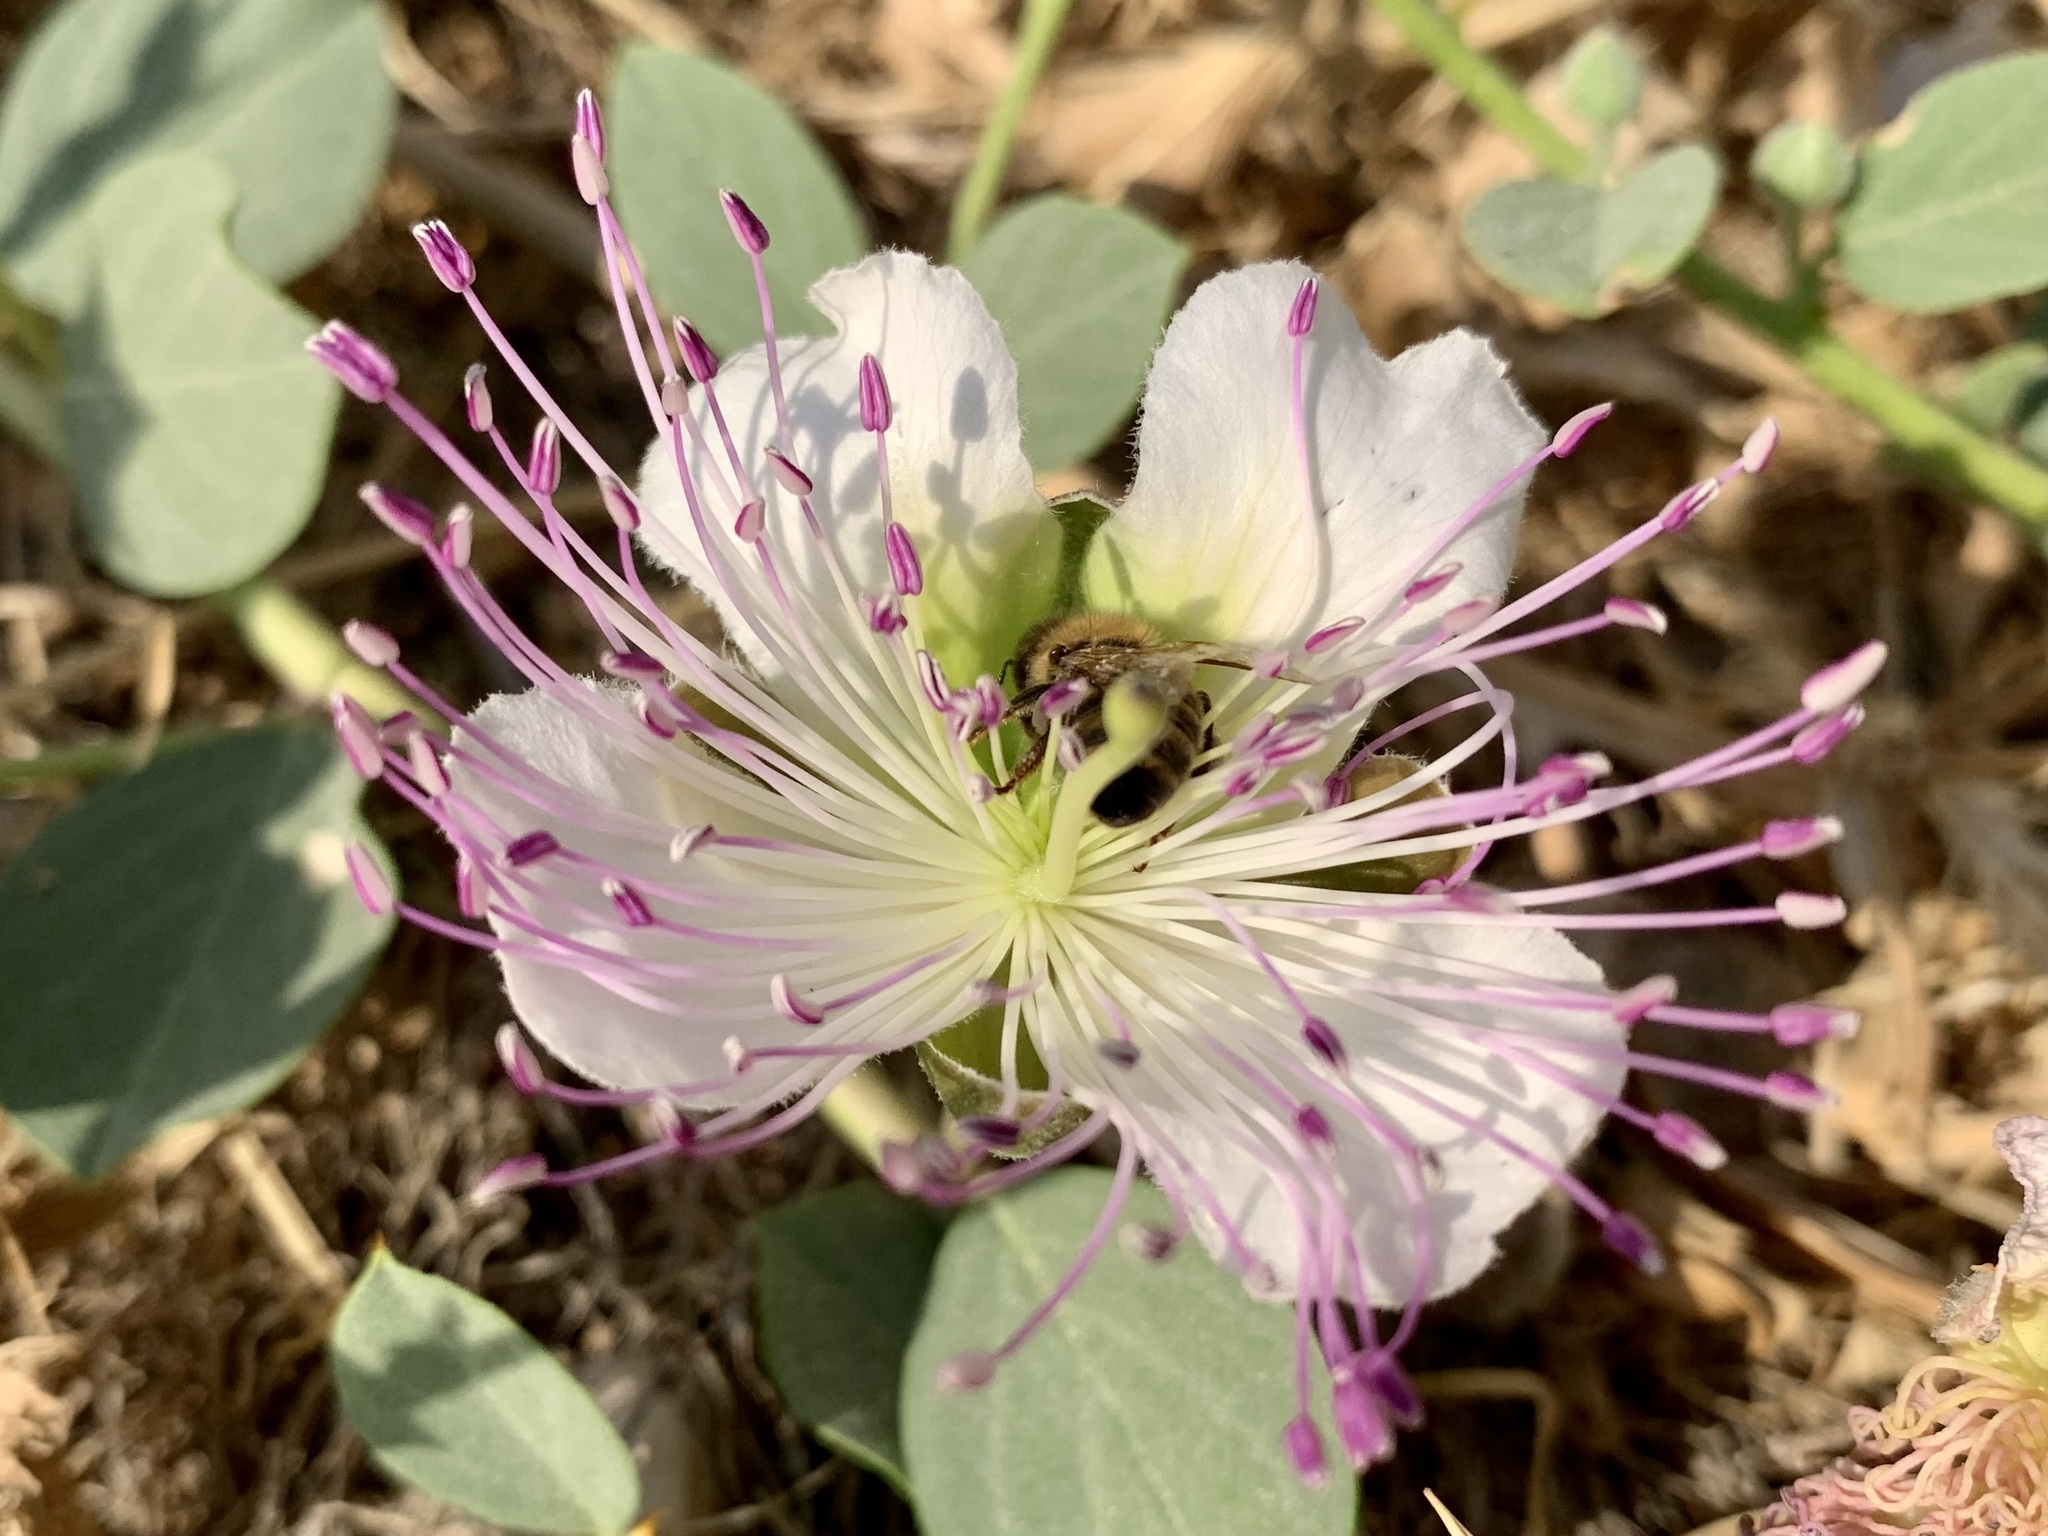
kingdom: Plantae
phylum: Tracheophyta
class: Magnoliopsida
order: Brassicales
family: Capparaceae
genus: Capparis
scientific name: Capparis spinosa
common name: Caper
